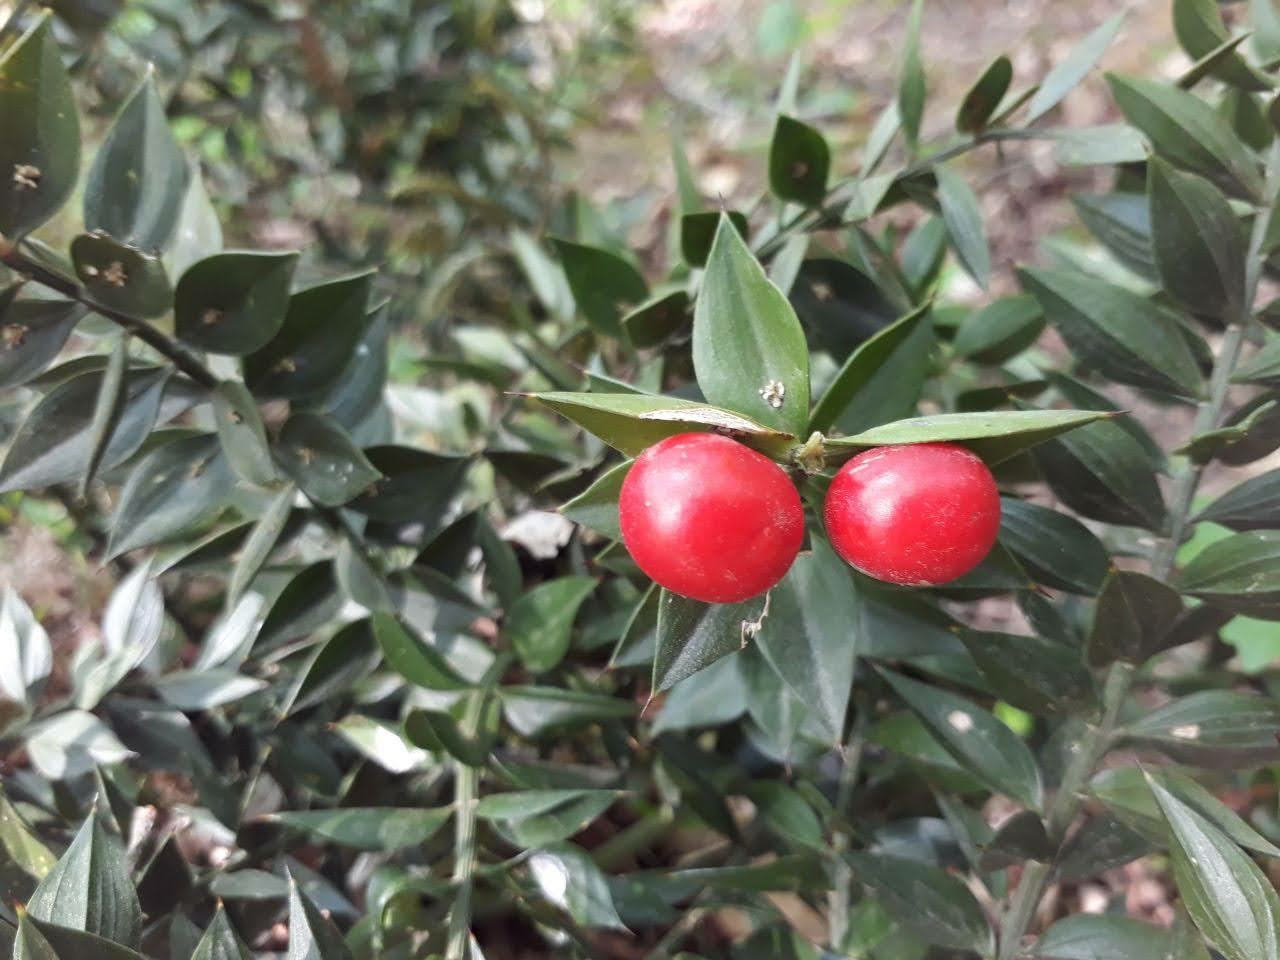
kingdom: Plantae
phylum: Tracheophyta
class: Liliopsida
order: Asparagales
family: Asparagaceae
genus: Ruscus
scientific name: Ruscus hyrcanus
